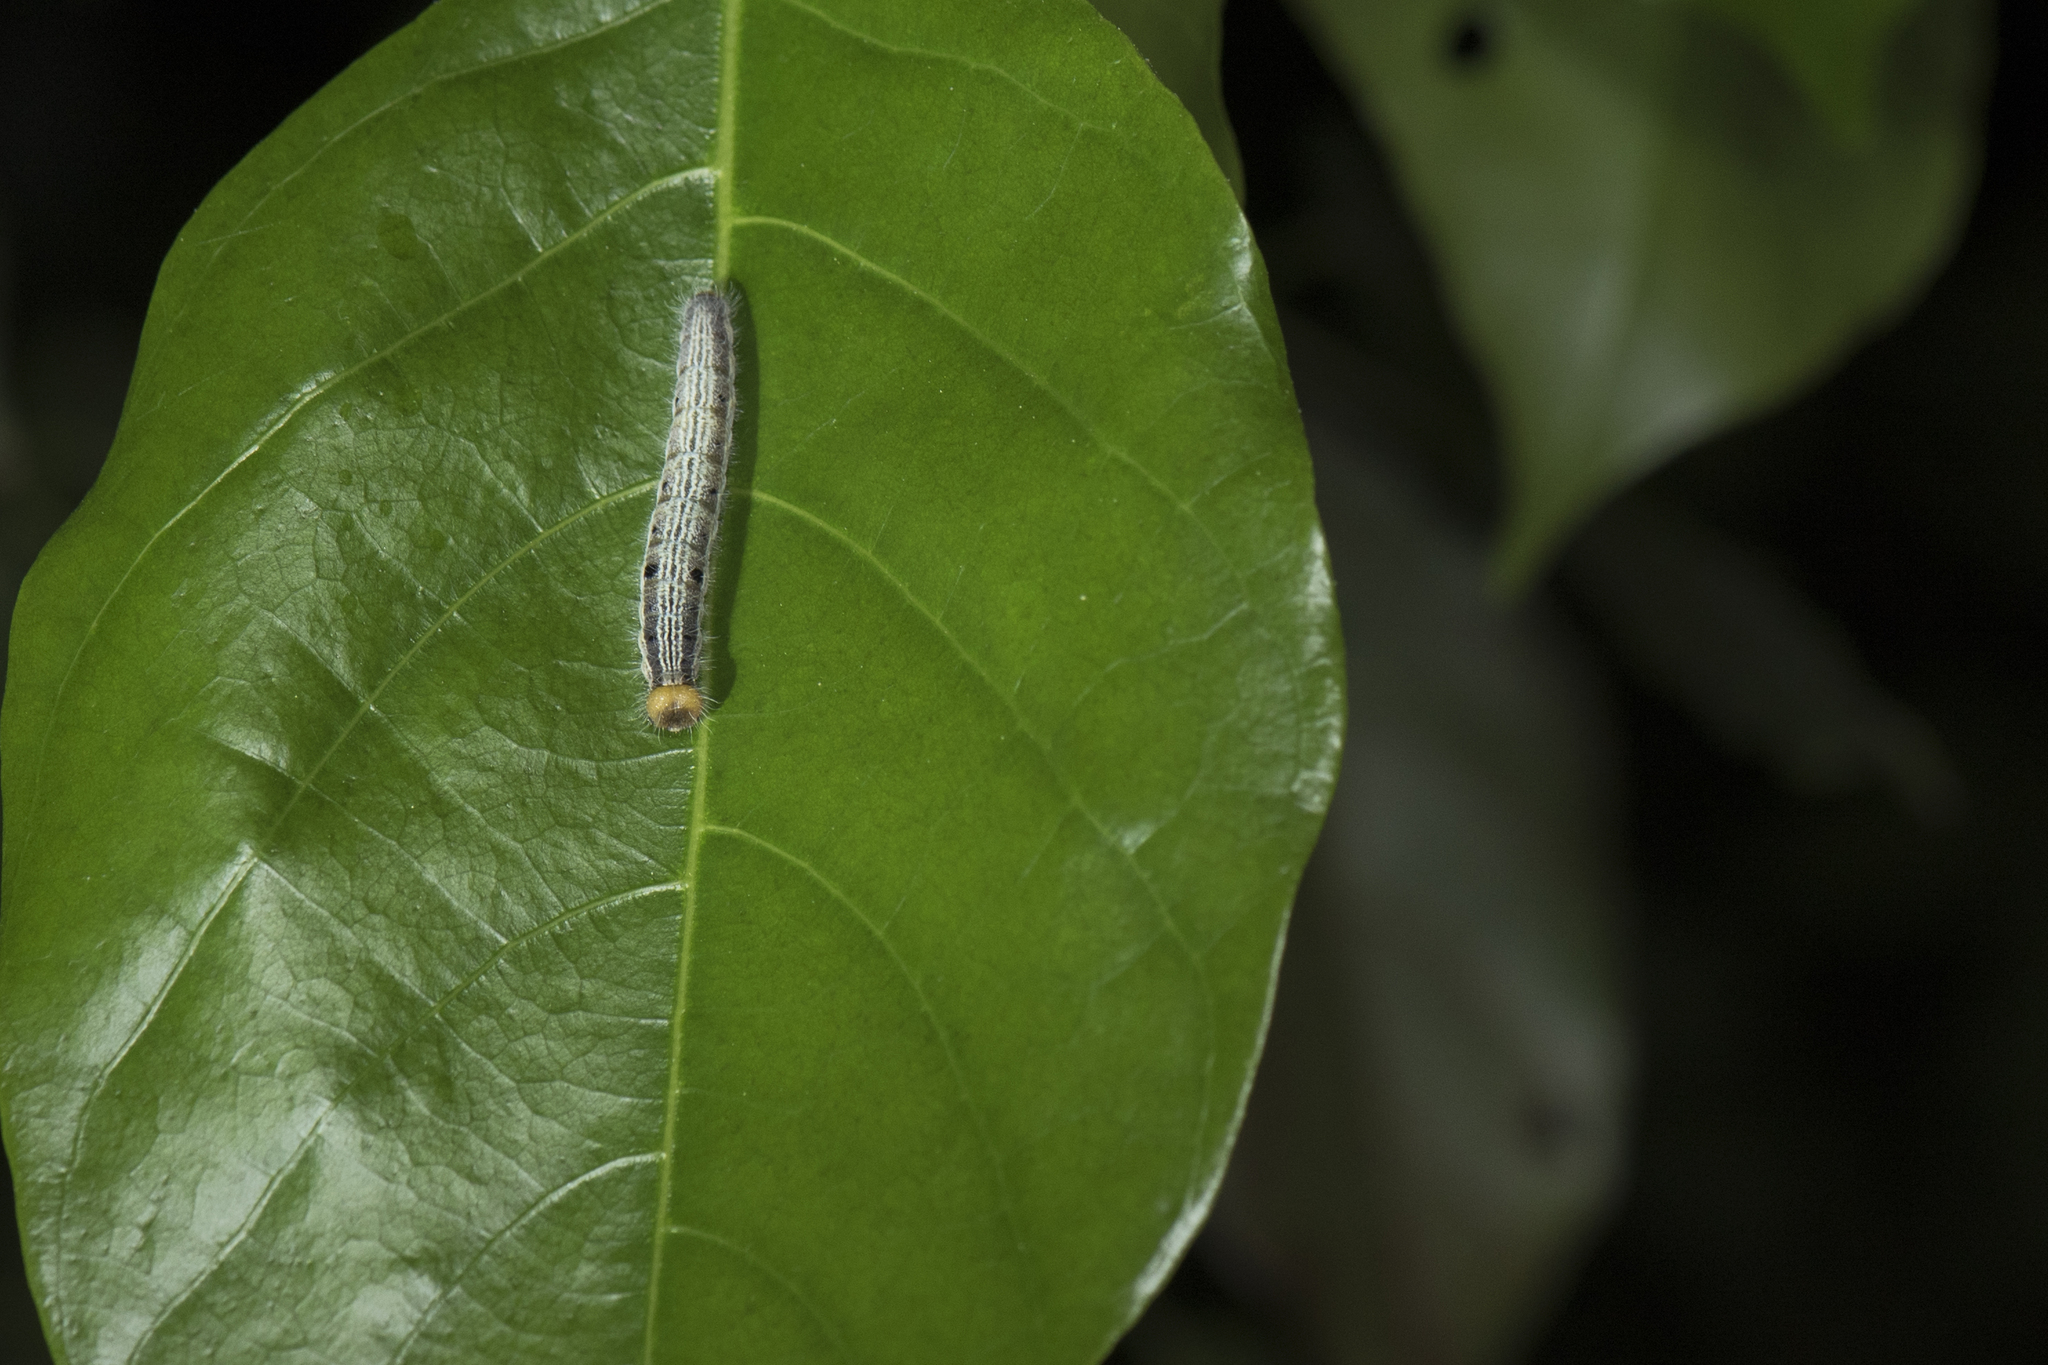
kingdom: Animalia
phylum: Arthropoda
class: Insecta
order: Lepidoptera
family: Hesperiidae
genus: Hasora
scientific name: Hasora chromus
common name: Common banded awl
